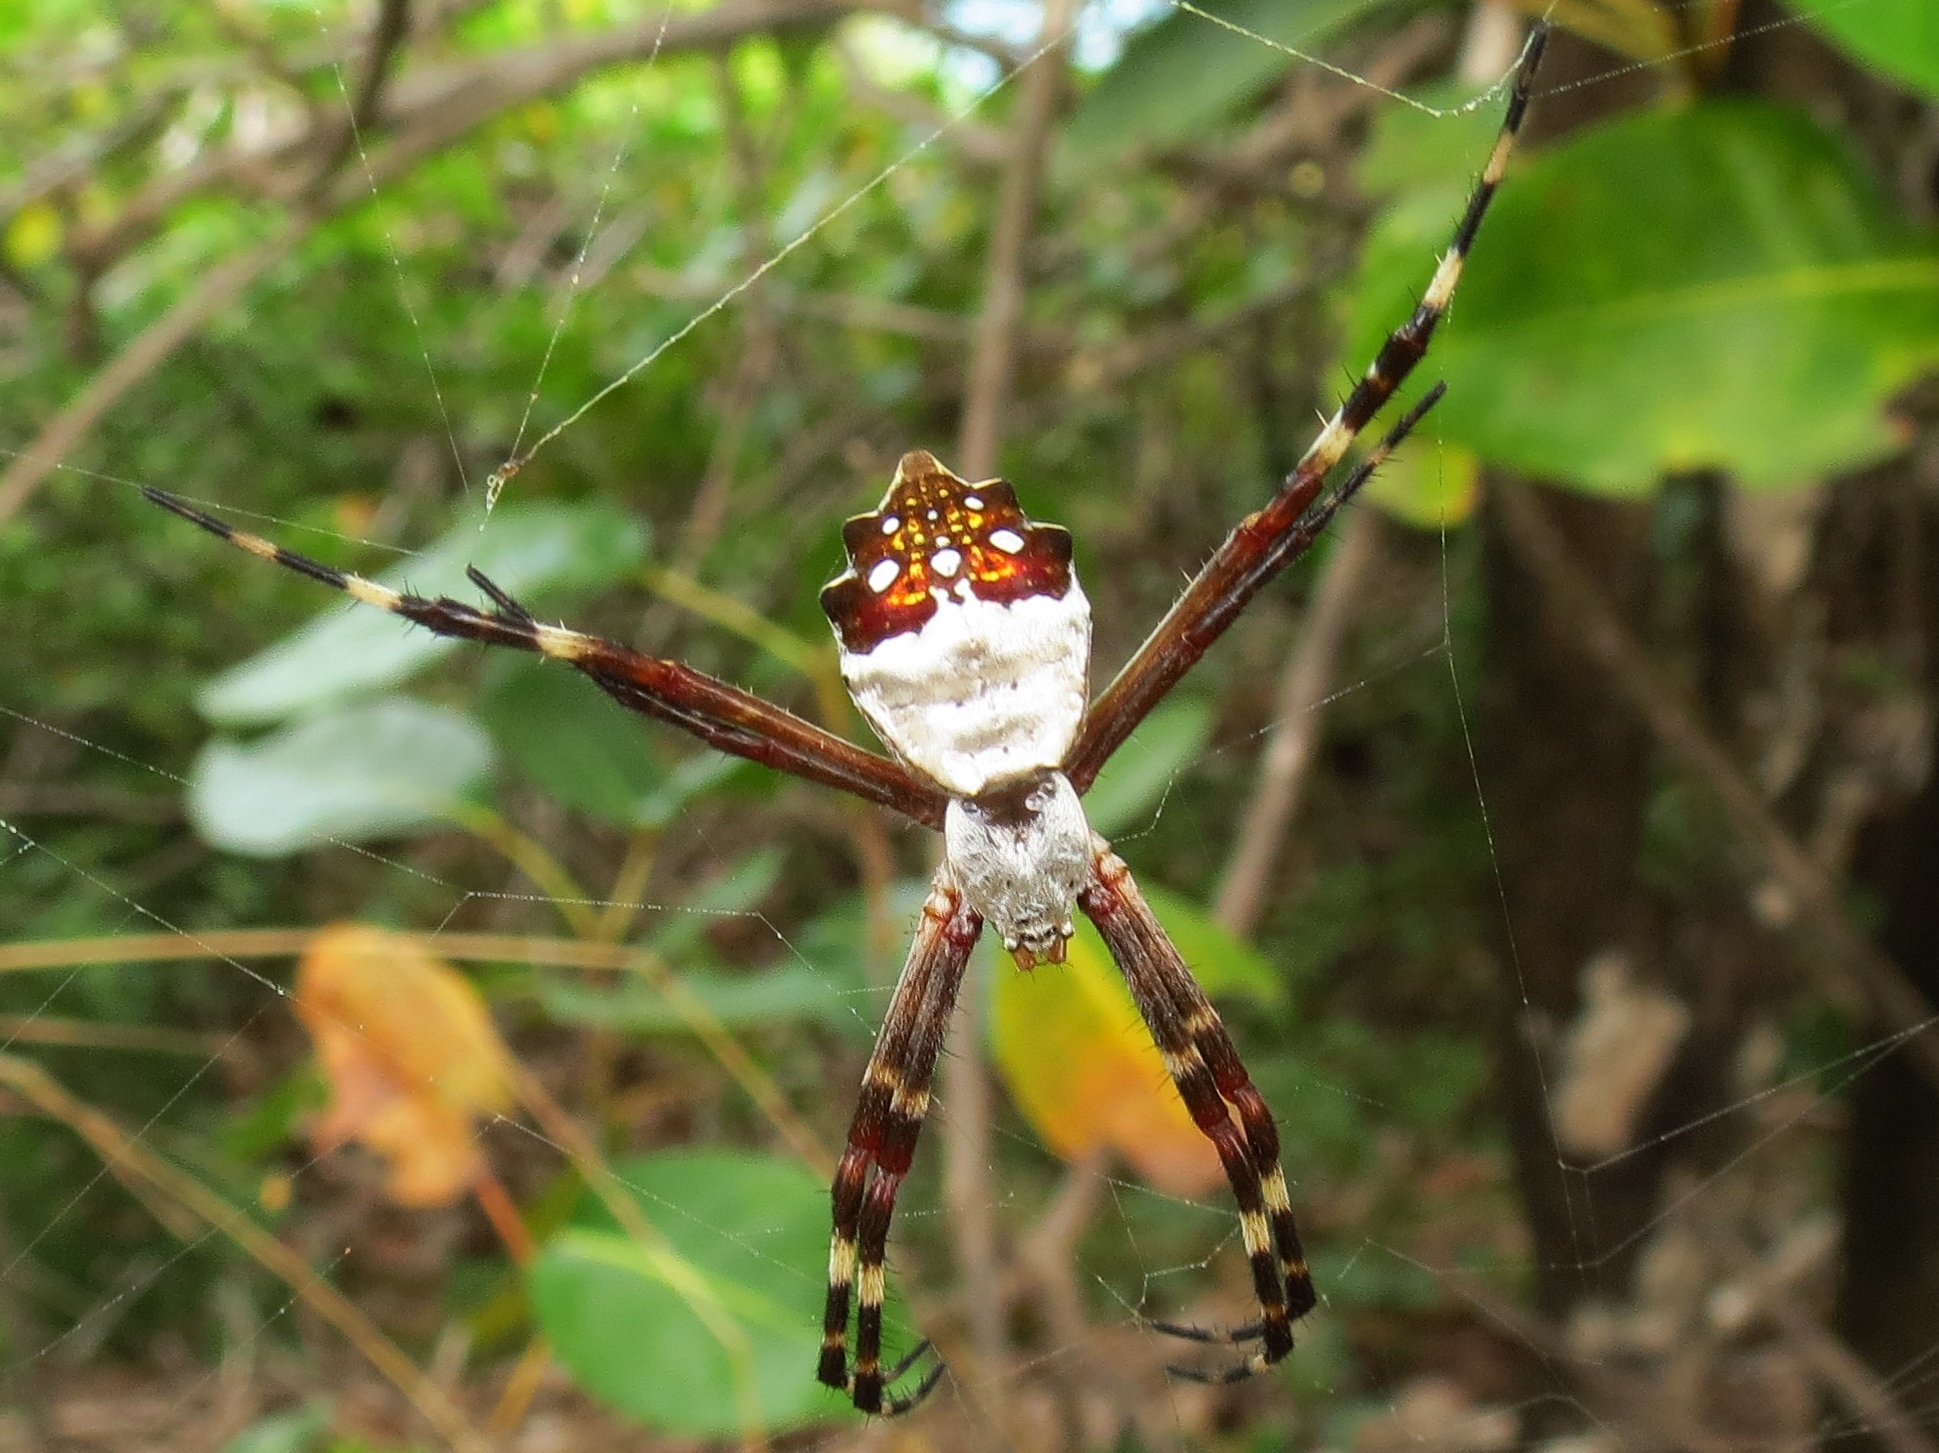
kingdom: Animalia
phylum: Arthropoda
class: Arachnida
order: Araneae
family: Araneidae
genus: Argiope
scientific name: Argiope argentata
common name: Orb weavers
